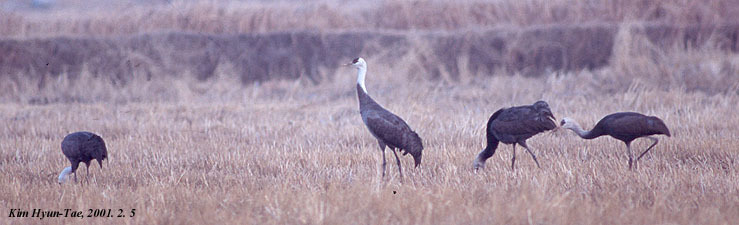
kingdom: Animalia
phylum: Chordata
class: Aves
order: Gruiformes
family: Gruidae
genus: Grus
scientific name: Grus monacha
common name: Hooded crane
